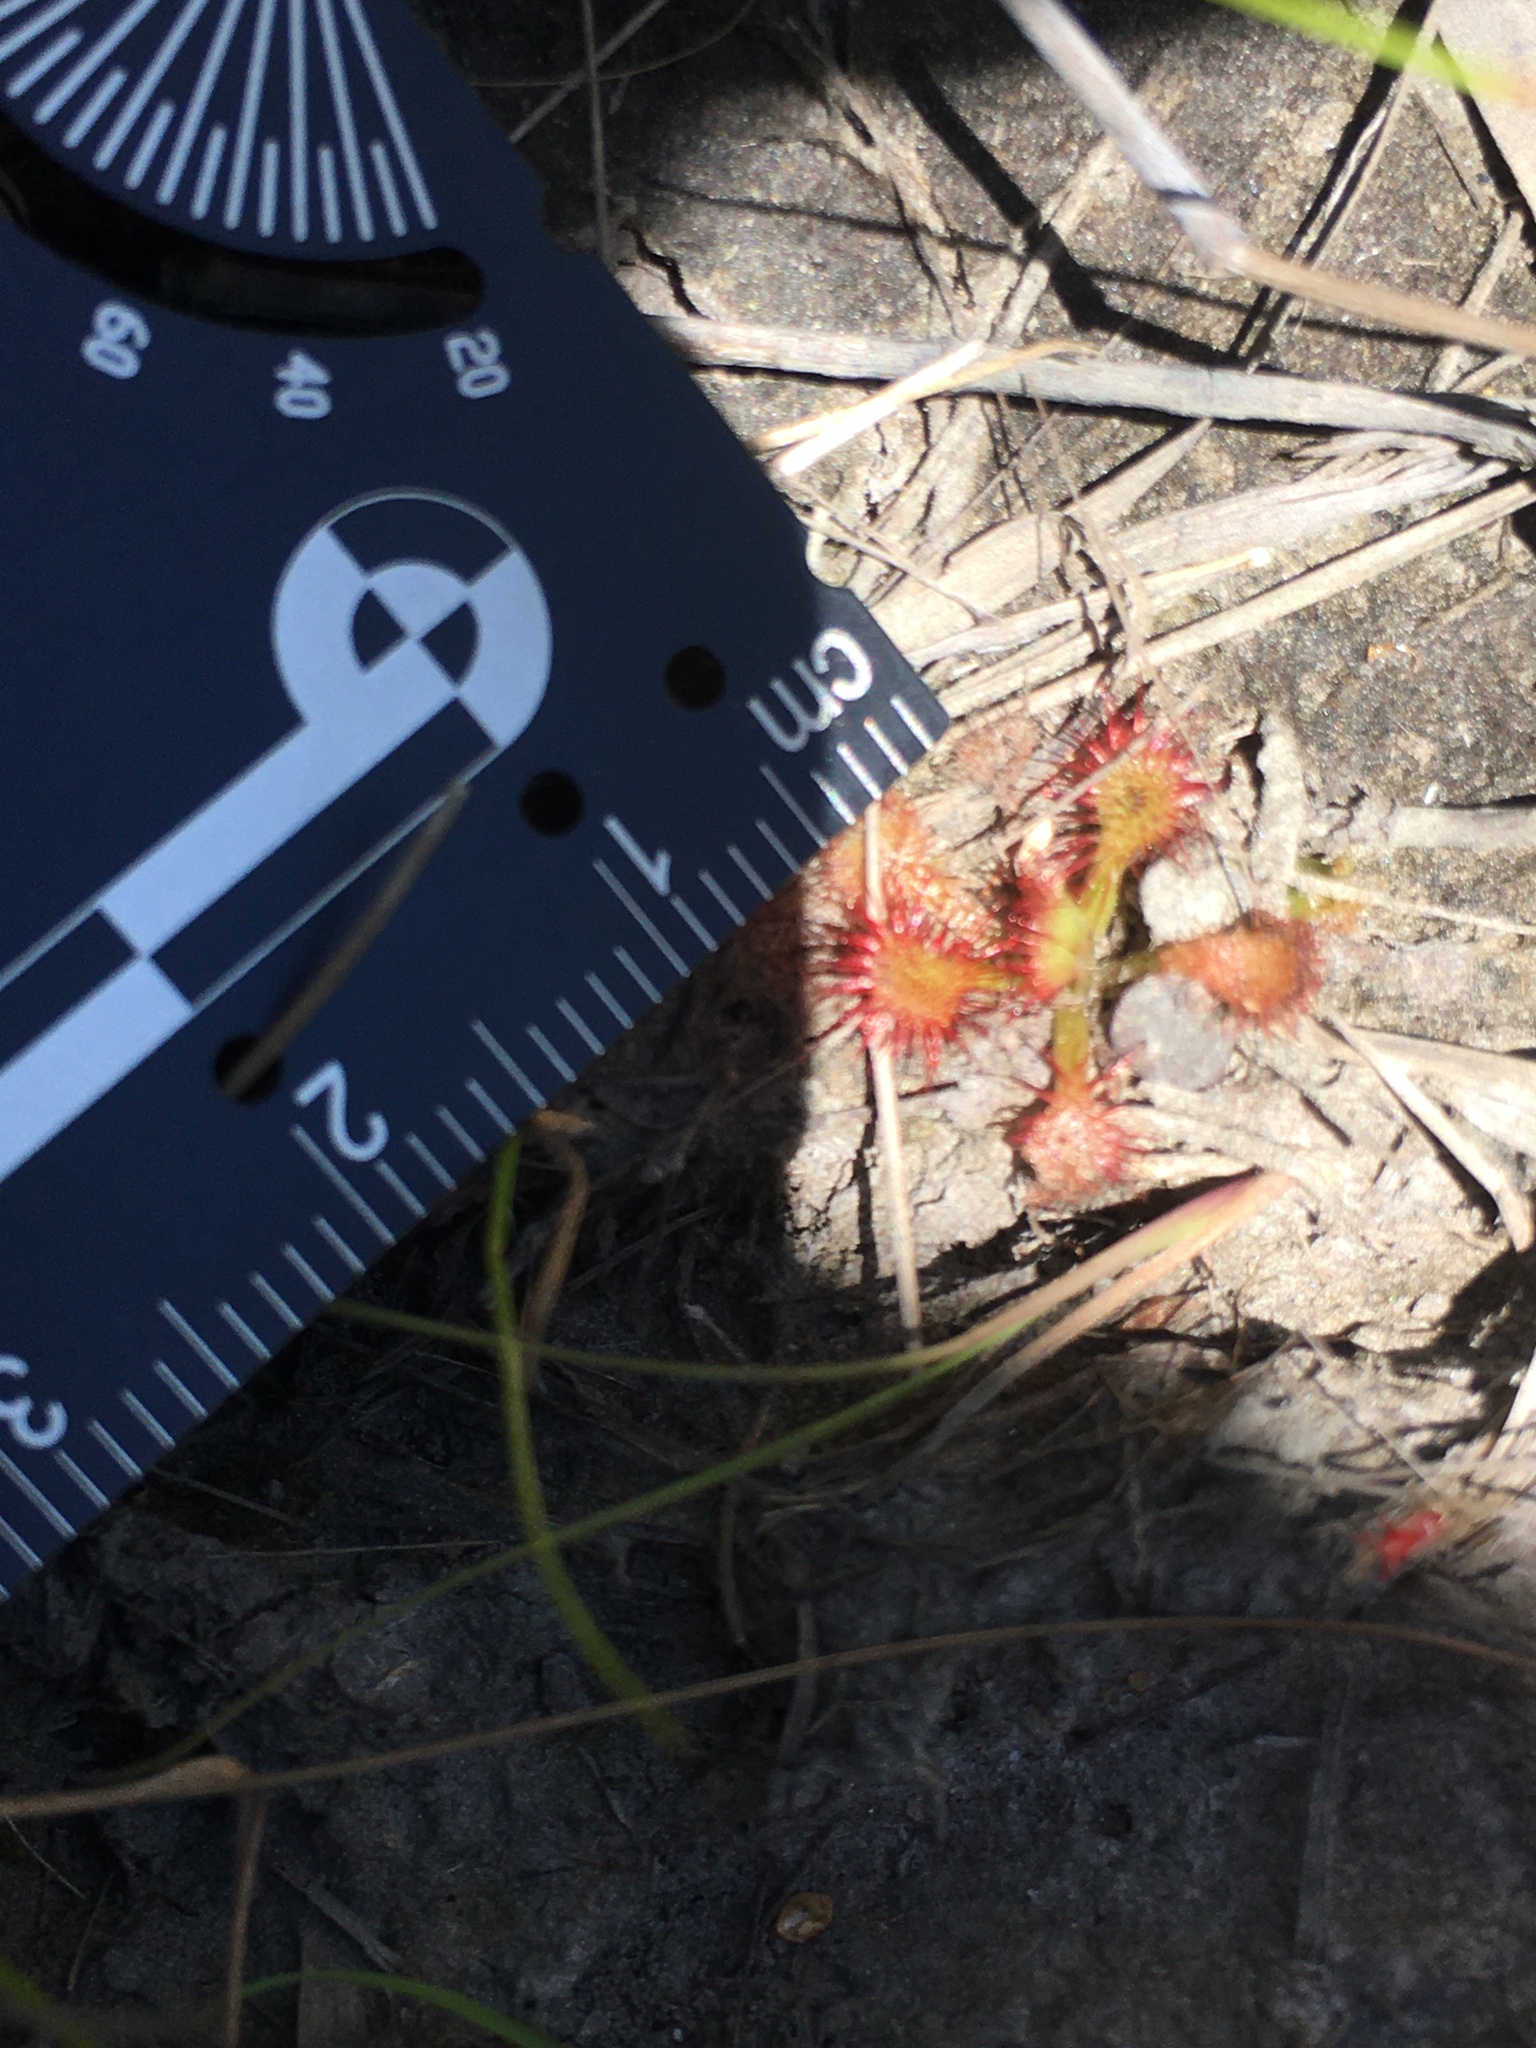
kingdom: Plantae
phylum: Tracheophyta
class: Magnoliopsida
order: Caryophyllales
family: Droseraceae
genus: Drosera
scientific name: Drosera capillaris
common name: Pink sundew
